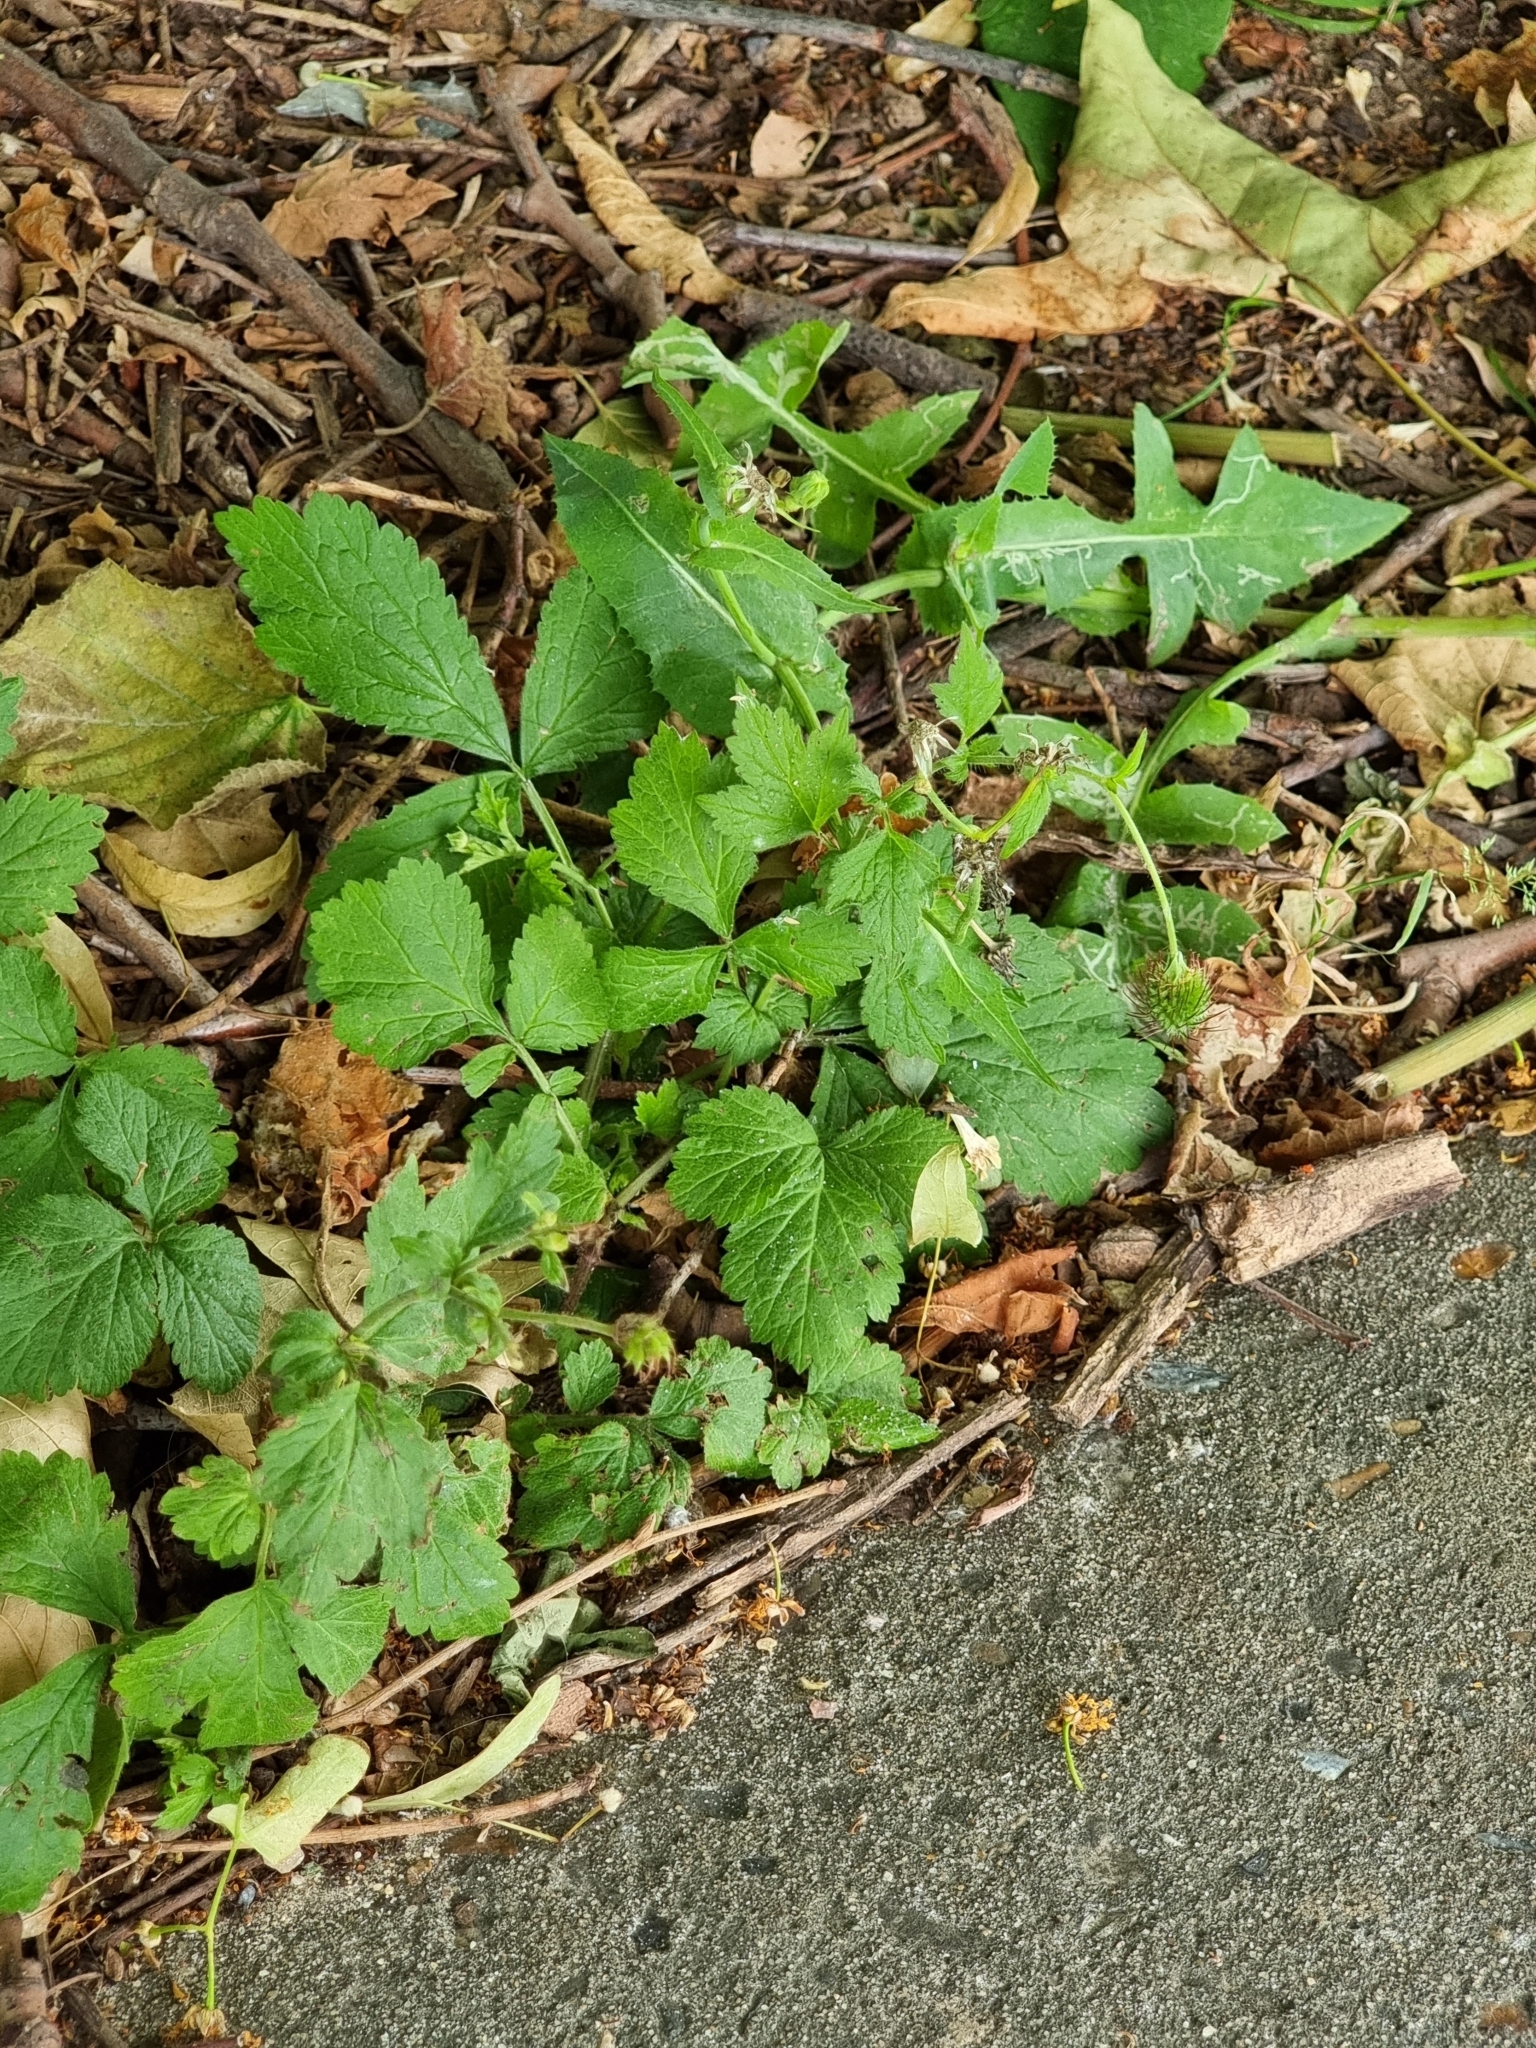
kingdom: Plantae
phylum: Tracheophyta
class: Magnoliopsida
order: Rosales
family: Rosaceae
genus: Geum
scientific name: Geum urbanum
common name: Wood avens
